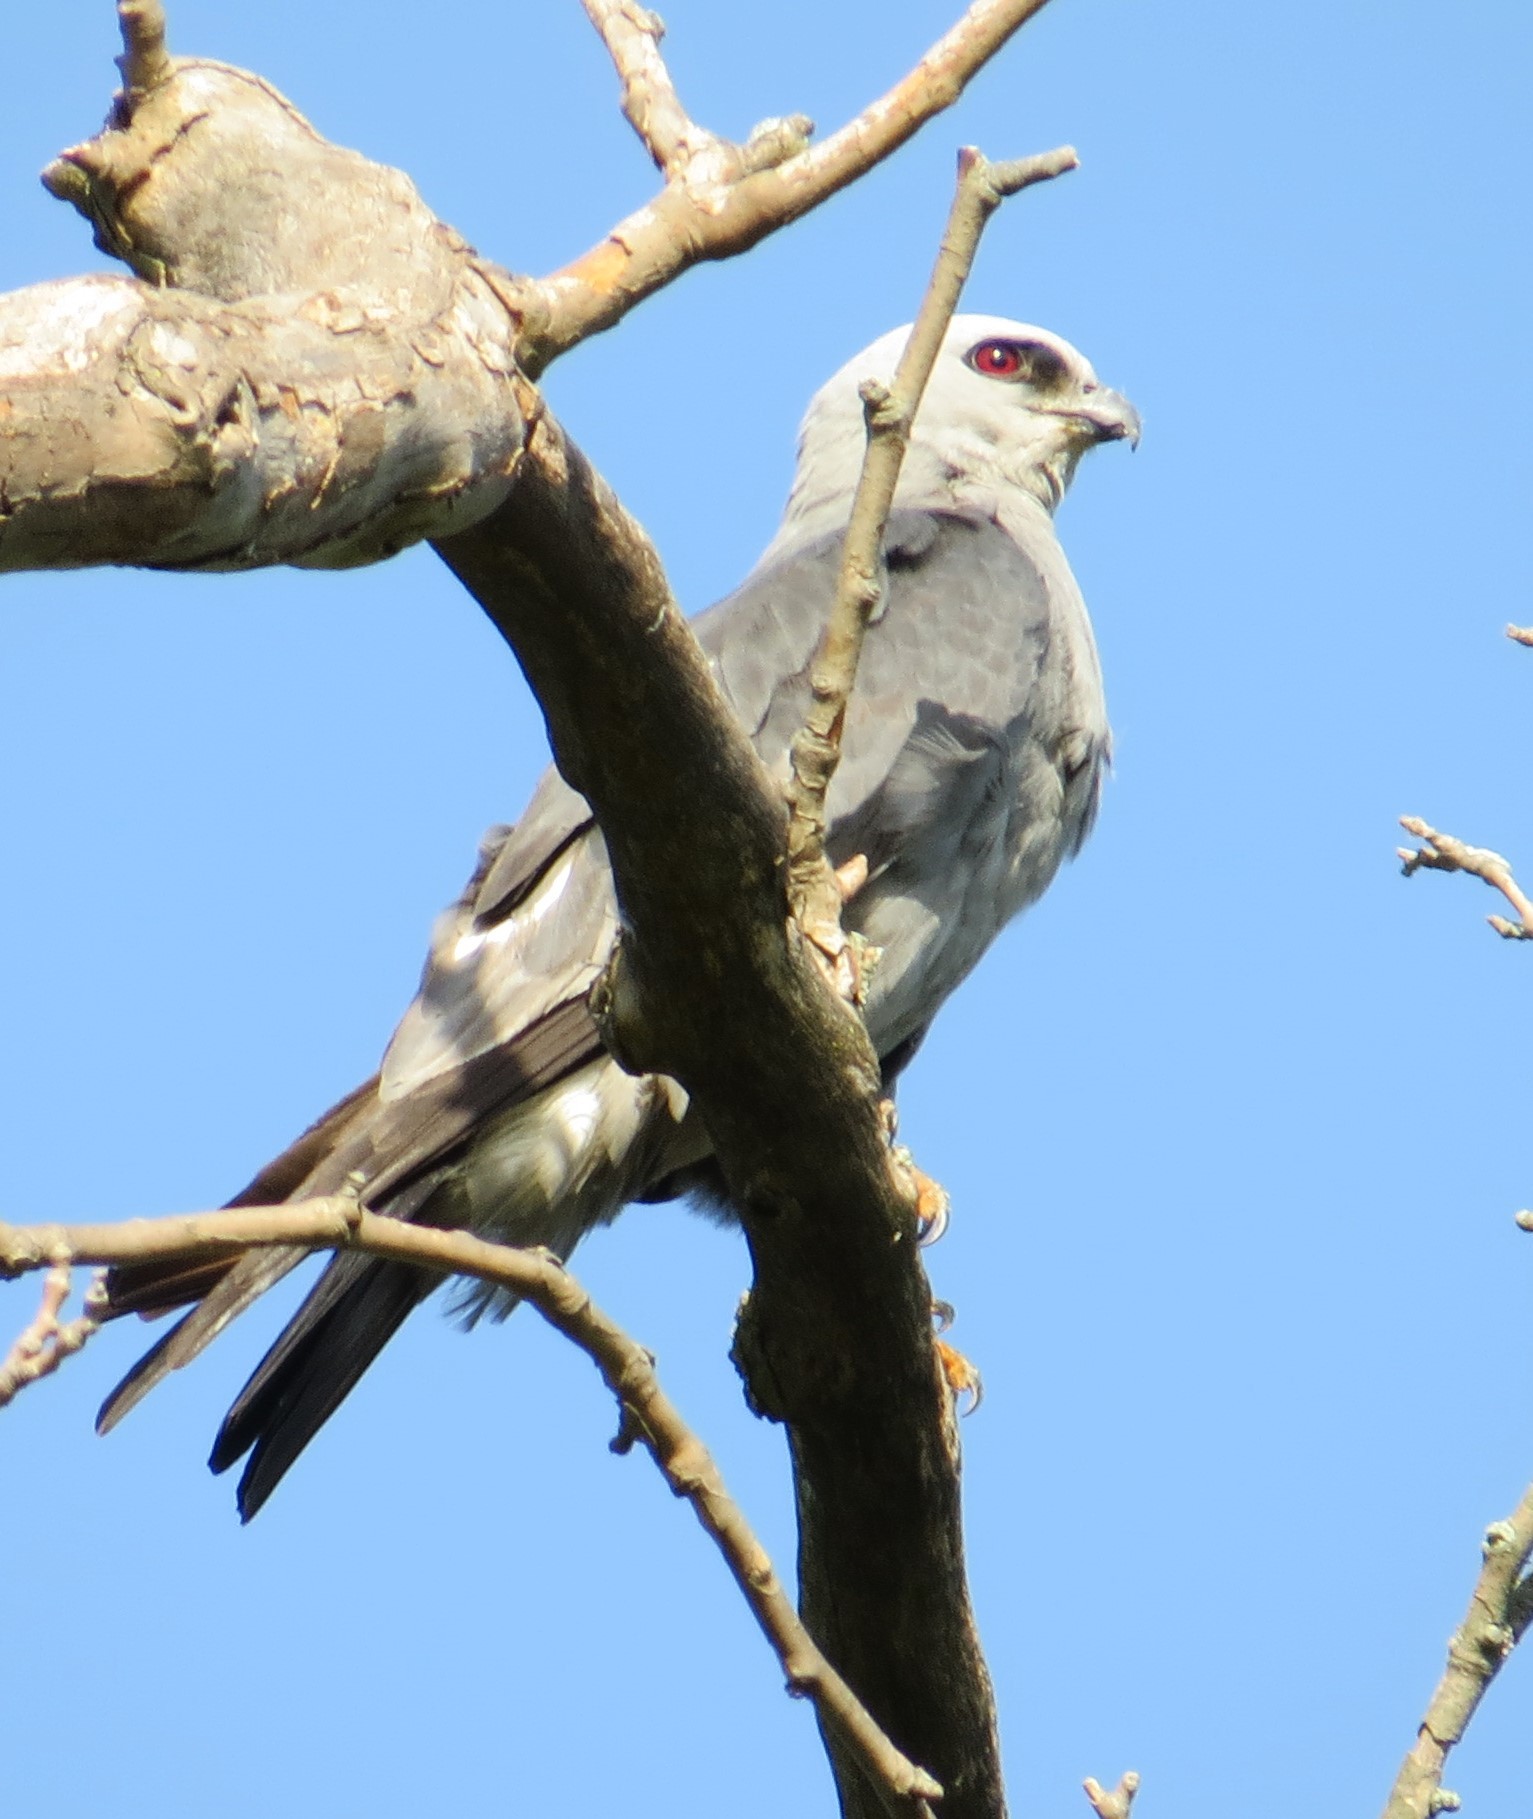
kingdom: Animalia
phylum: Chordata
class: Aves
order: Accipitriformes
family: Accipitridae
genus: Ictinia
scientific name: Ictinia mississippiensis
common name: Mississippi kite
